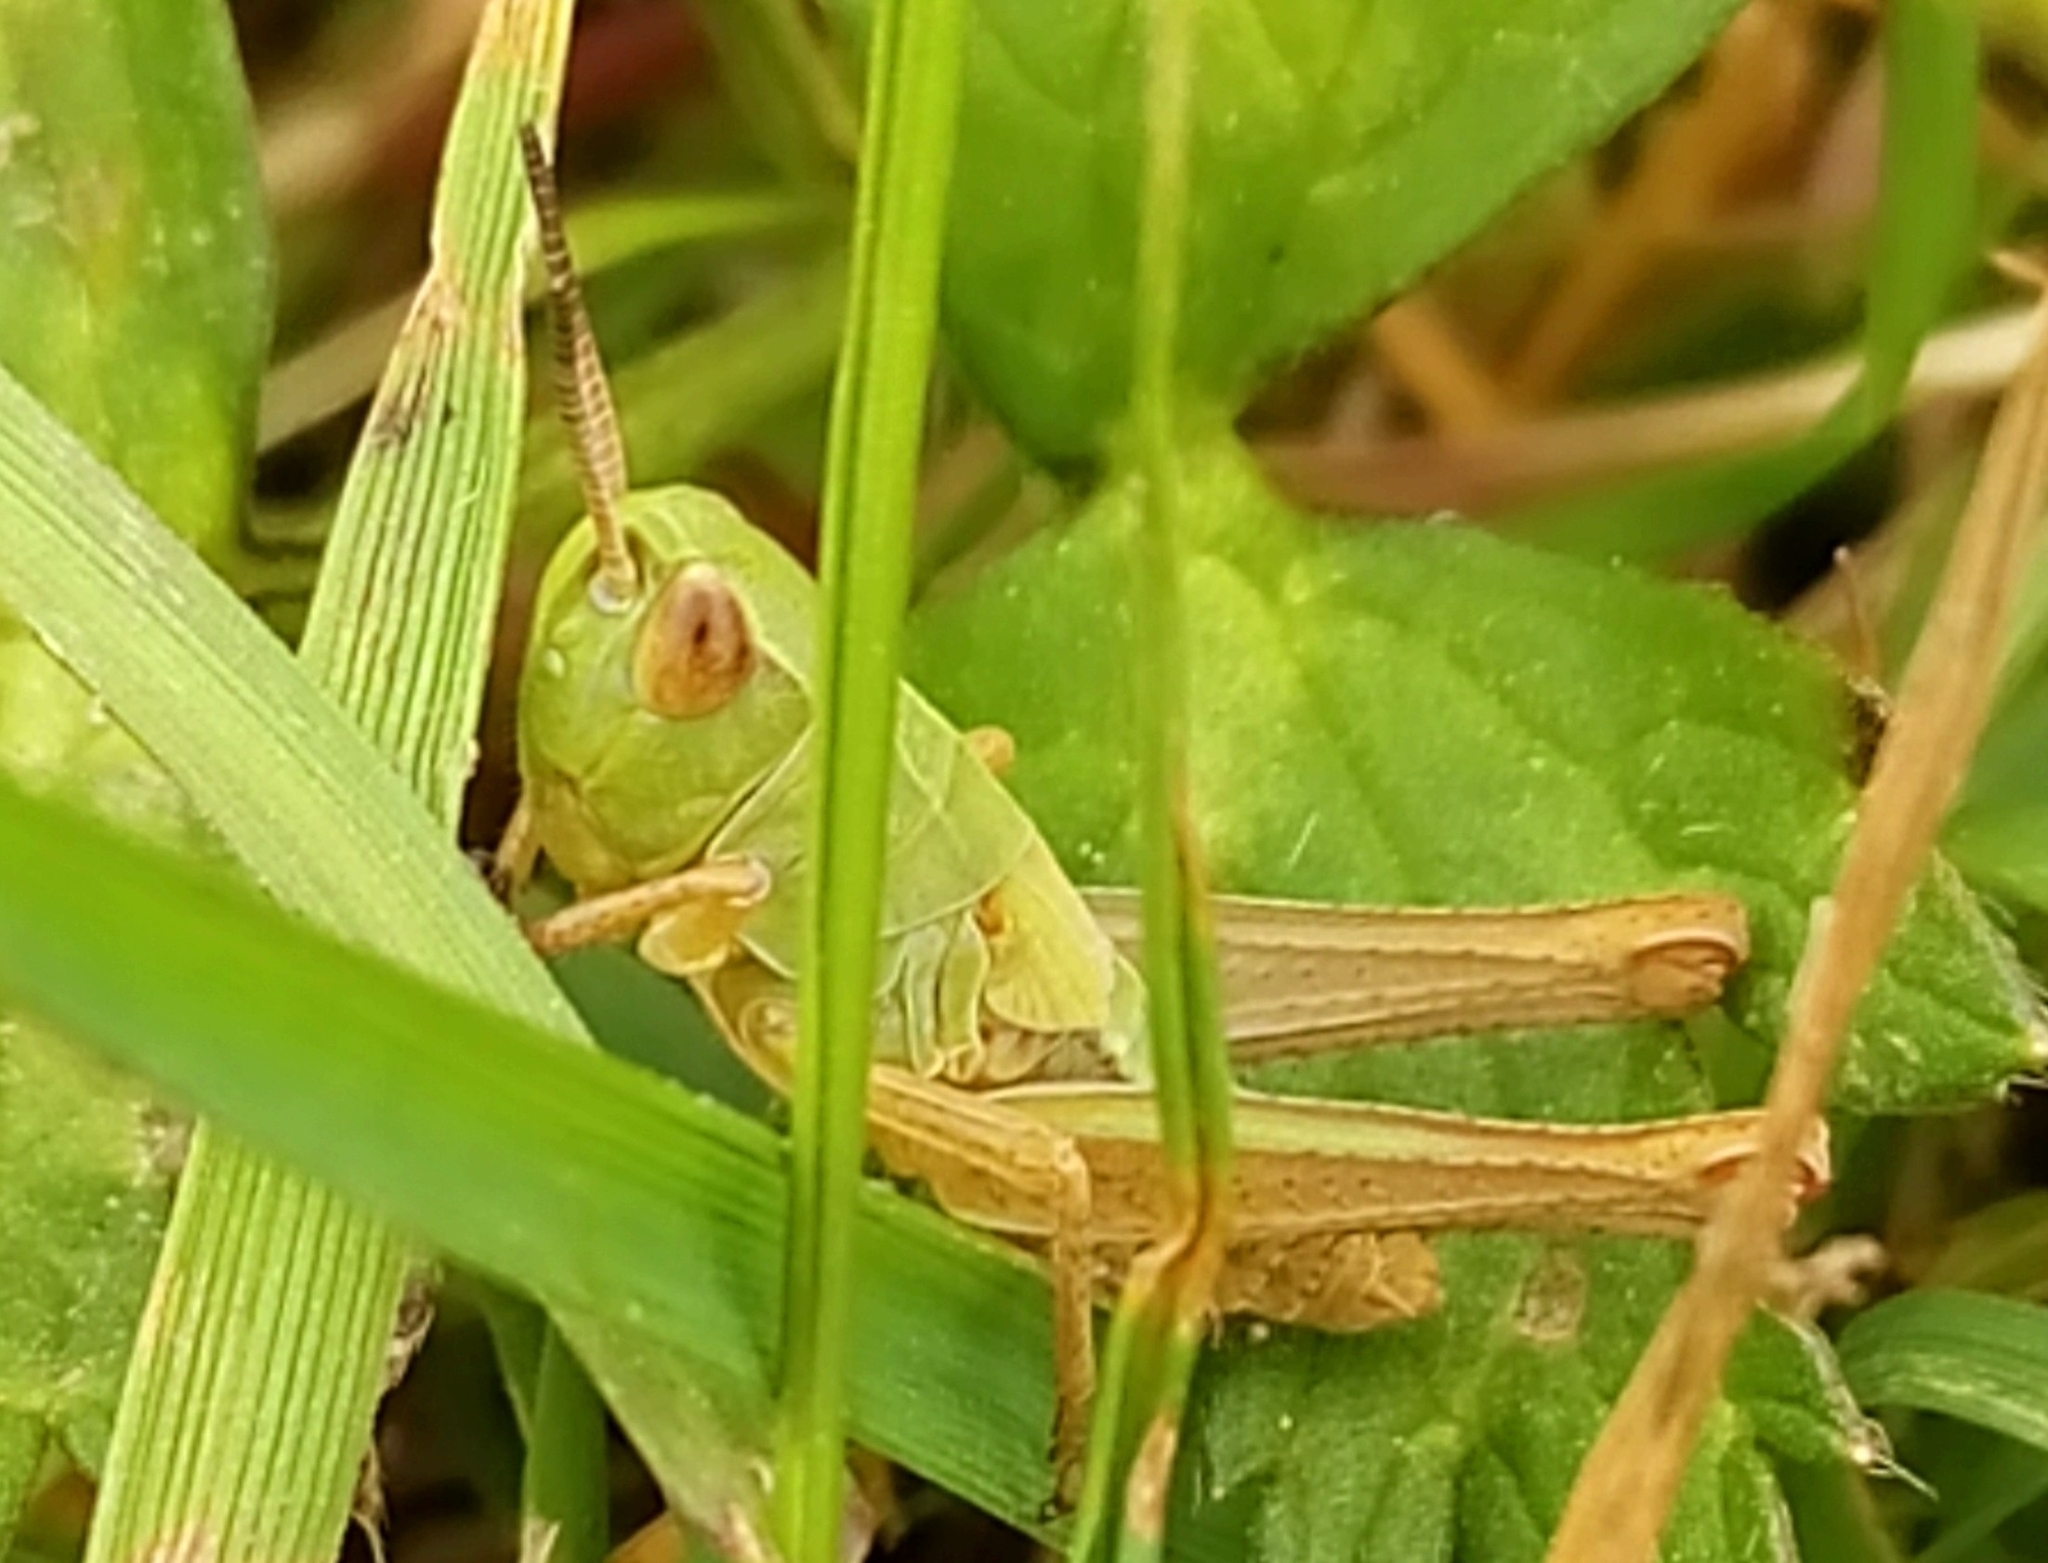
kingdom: Animalia
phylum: Arthropoda
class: Insecta
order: Orthoptera
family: Acrididae
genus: Pseudochorthippus
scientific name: Pseudochorthippus parallelus
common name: Meadow grasshopper
